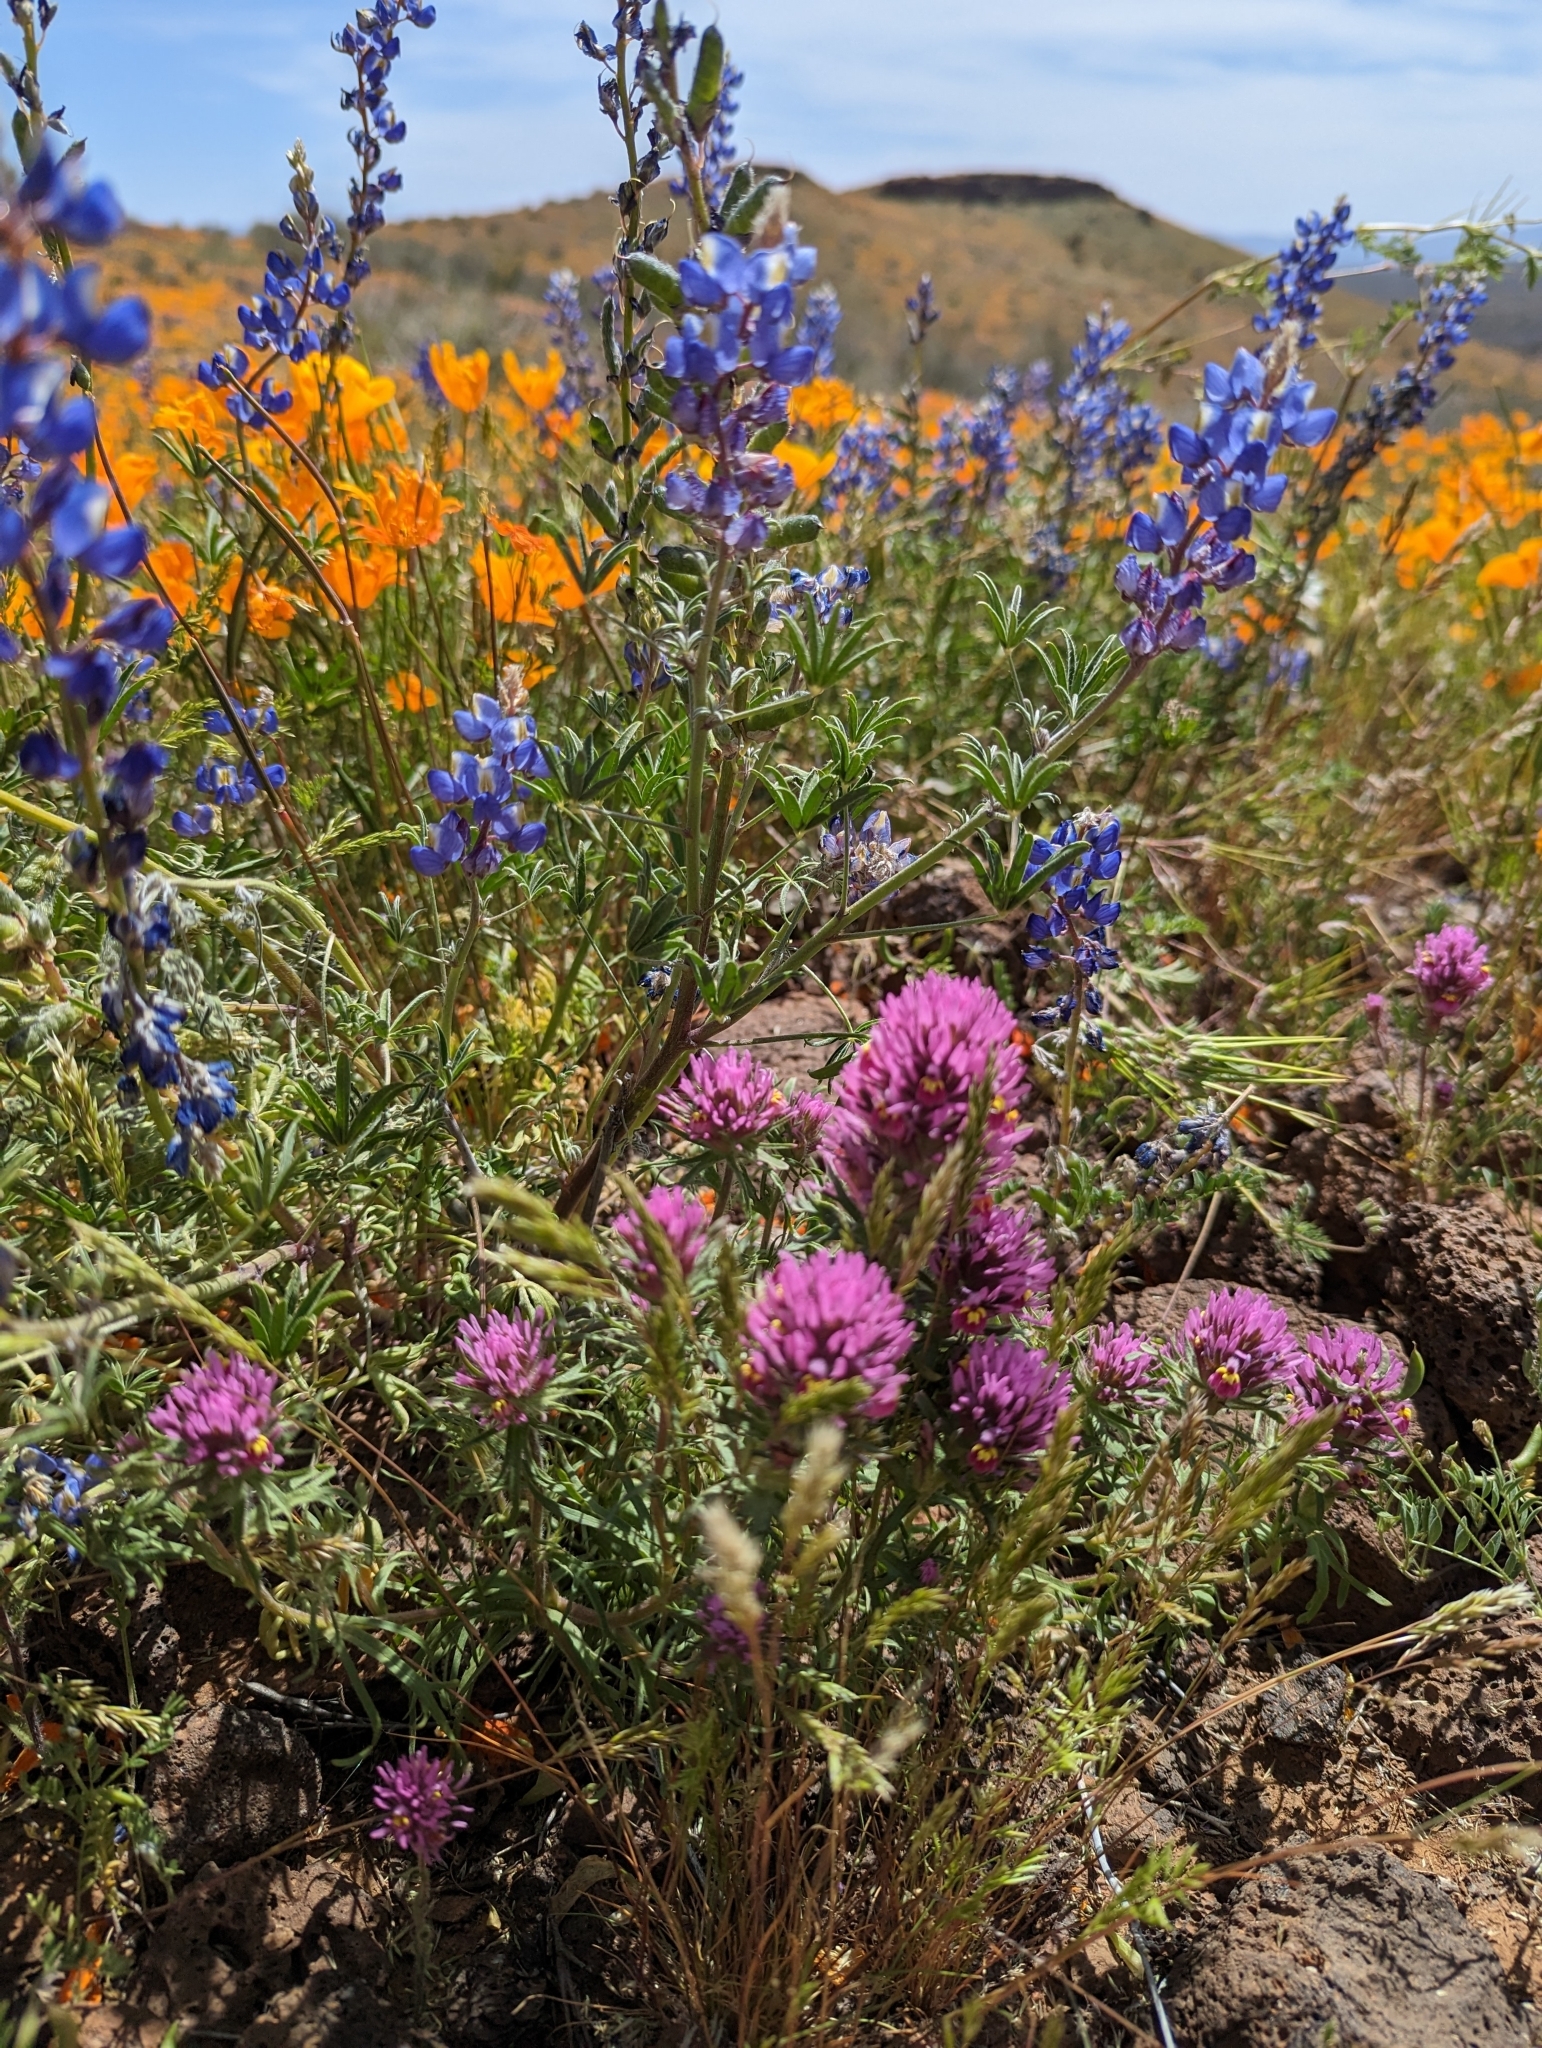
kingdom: Plantae
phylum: Tracheophyta
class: Magnoliopsida
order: Lamiales
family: Orobanchaceae
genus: Castilleja
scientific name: Castilleja exserta
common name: Purple owl-clover
